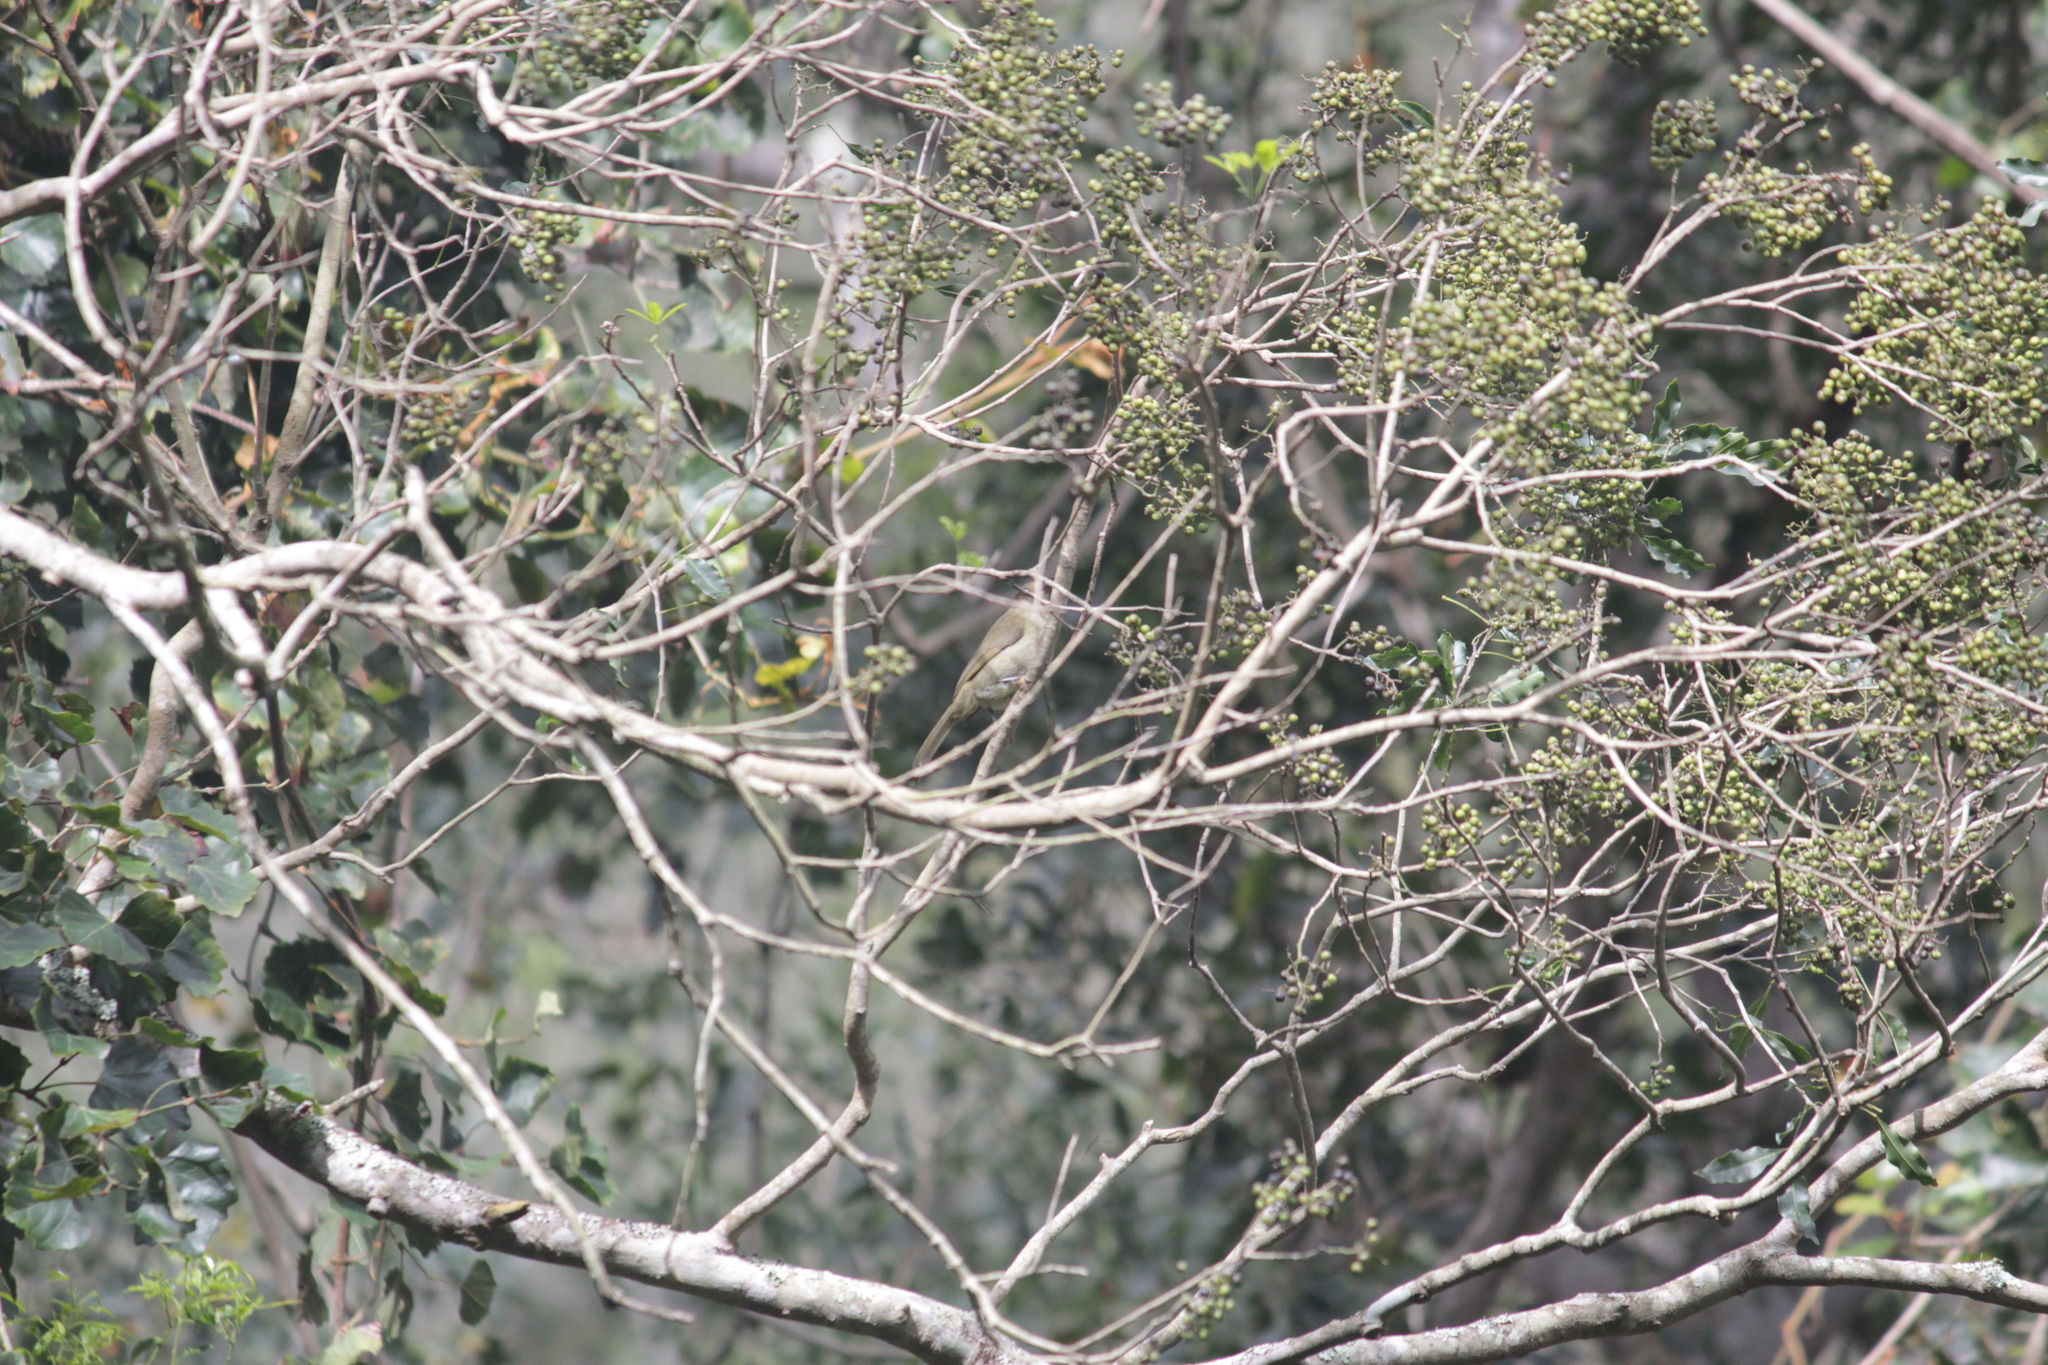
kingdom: Animalia
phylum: Chordata
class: Aves
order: Passeriformes
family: Pycnonotidae
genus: Andropadus
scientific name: Andropadus importunus
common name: Sombre greenbul
